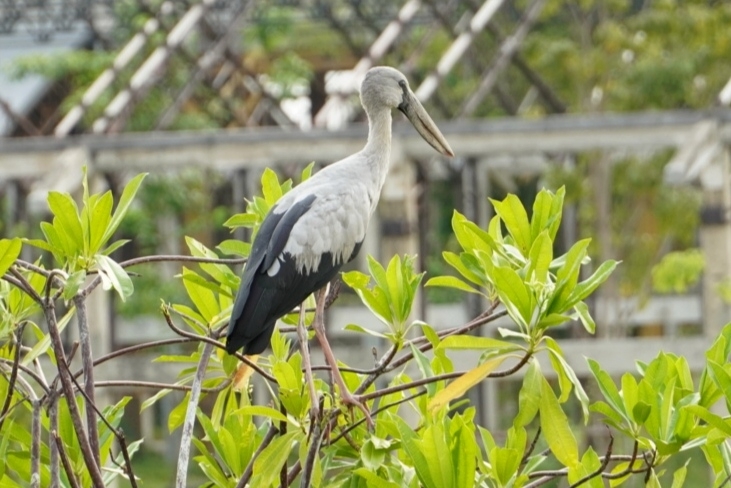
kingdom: Animalia
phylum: Chordata
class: Aves
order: Ciconiiformes
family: Ciconiidae
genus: Anastomus
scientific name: Anastomus oscitans
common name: Asian openbill
